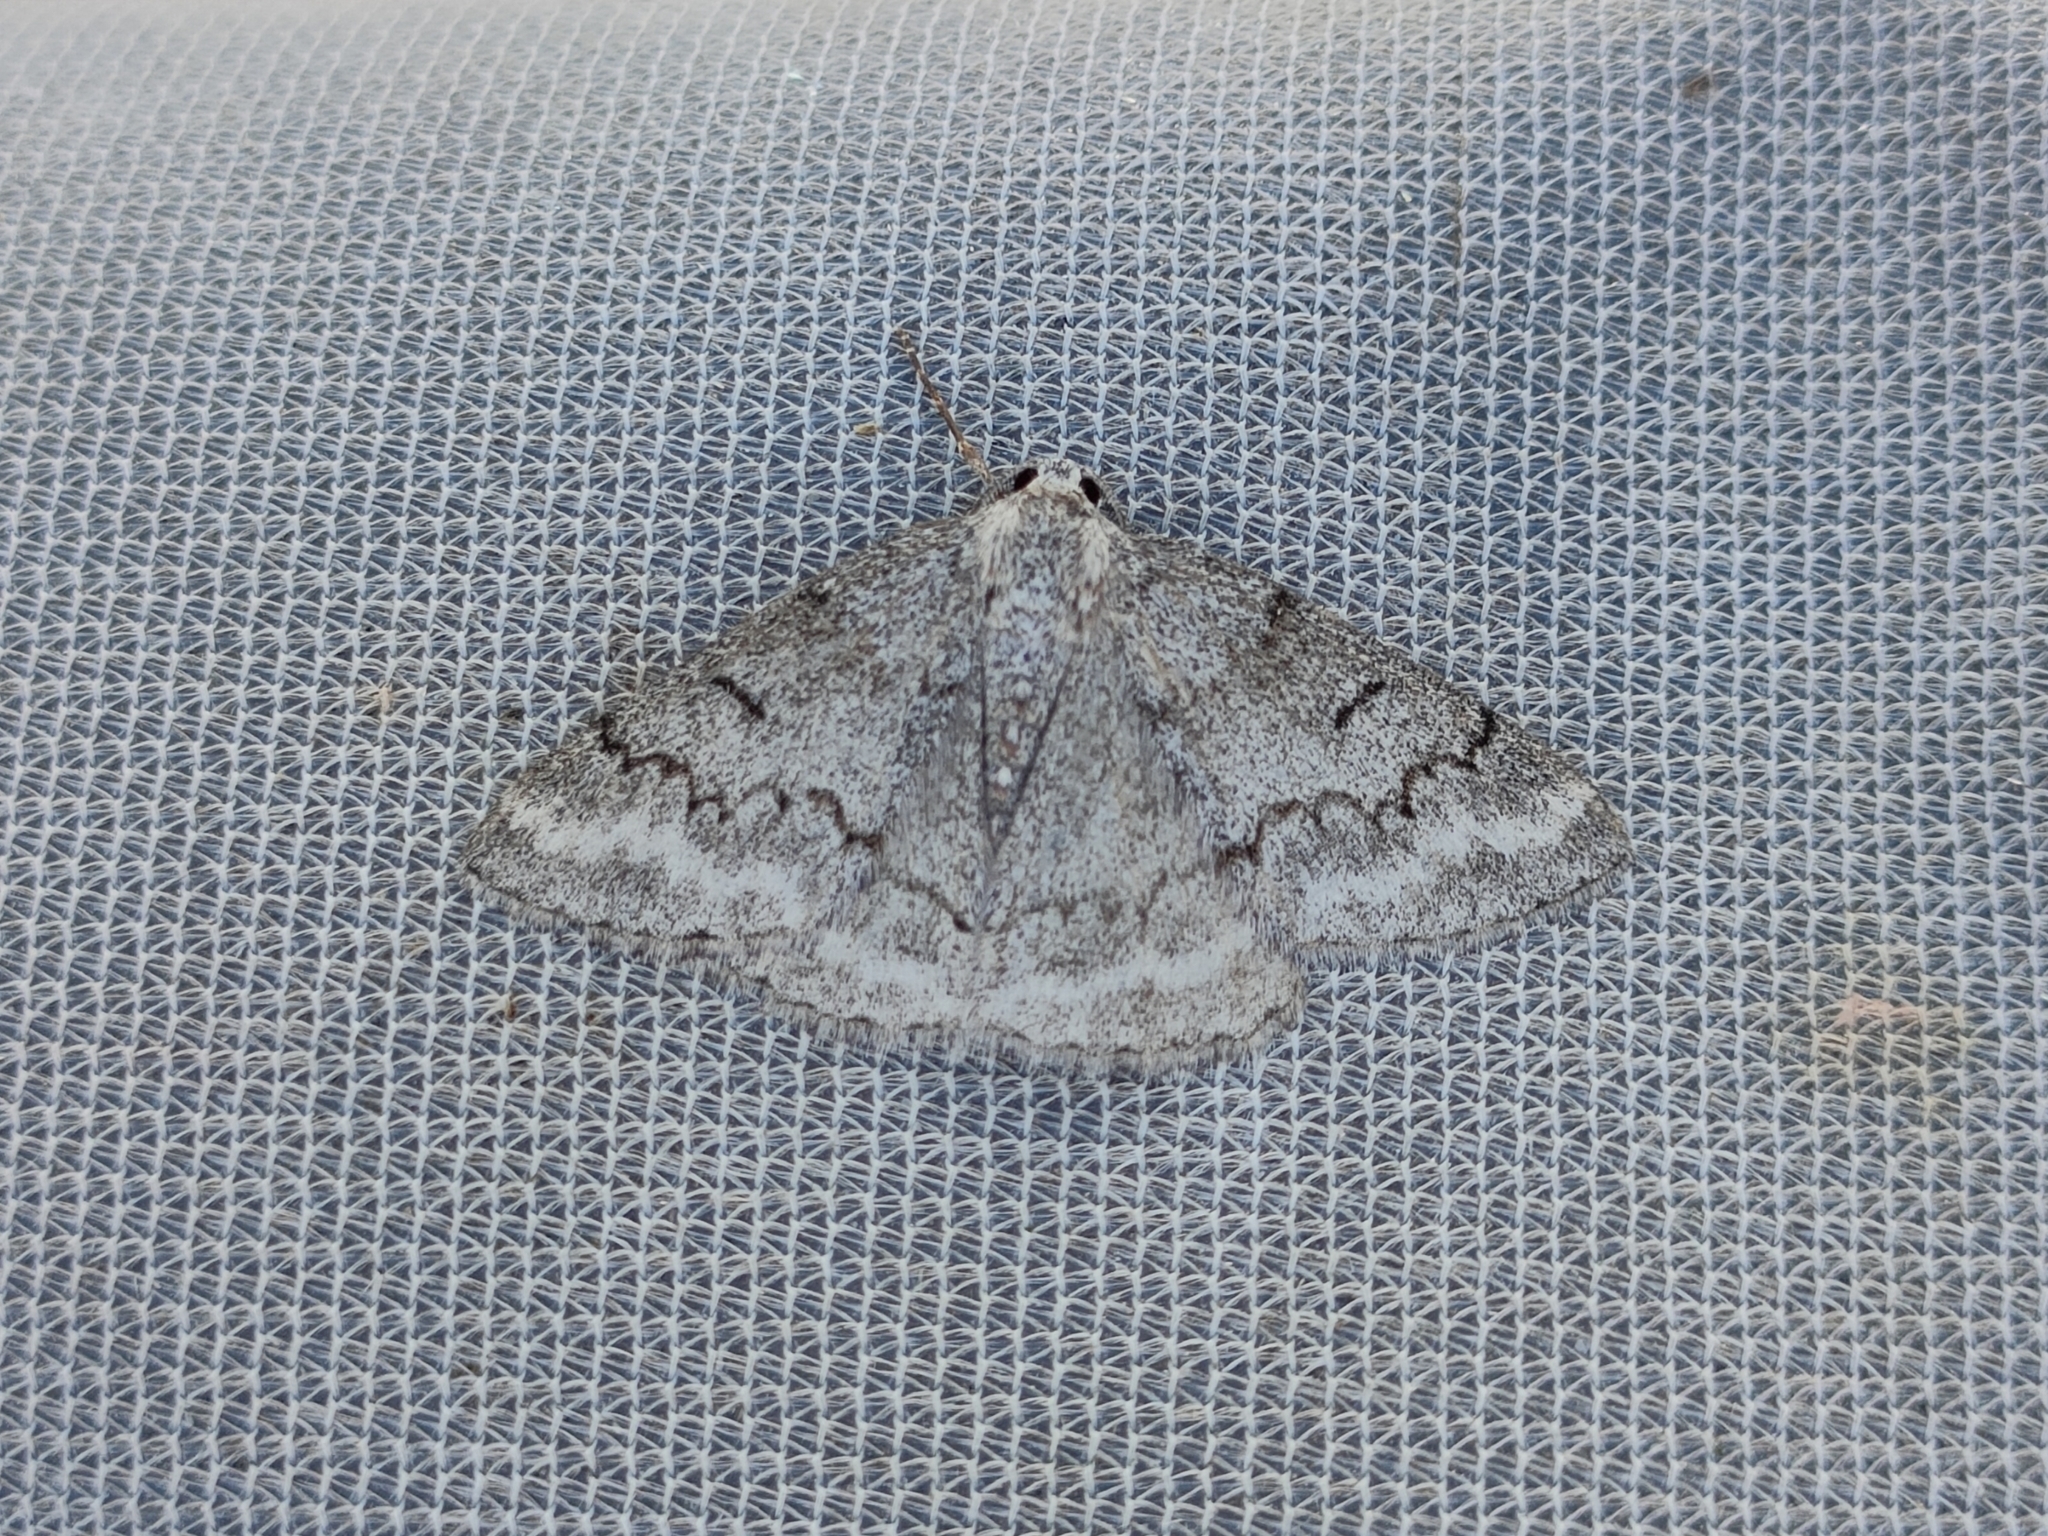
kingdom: Animalia
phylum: Arthropoda
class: Insecta
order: Lepidoptera
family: Geometridae
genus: Pseudoterpna
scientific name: Pseudoterpna coronillaria
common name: Jersey emerald
